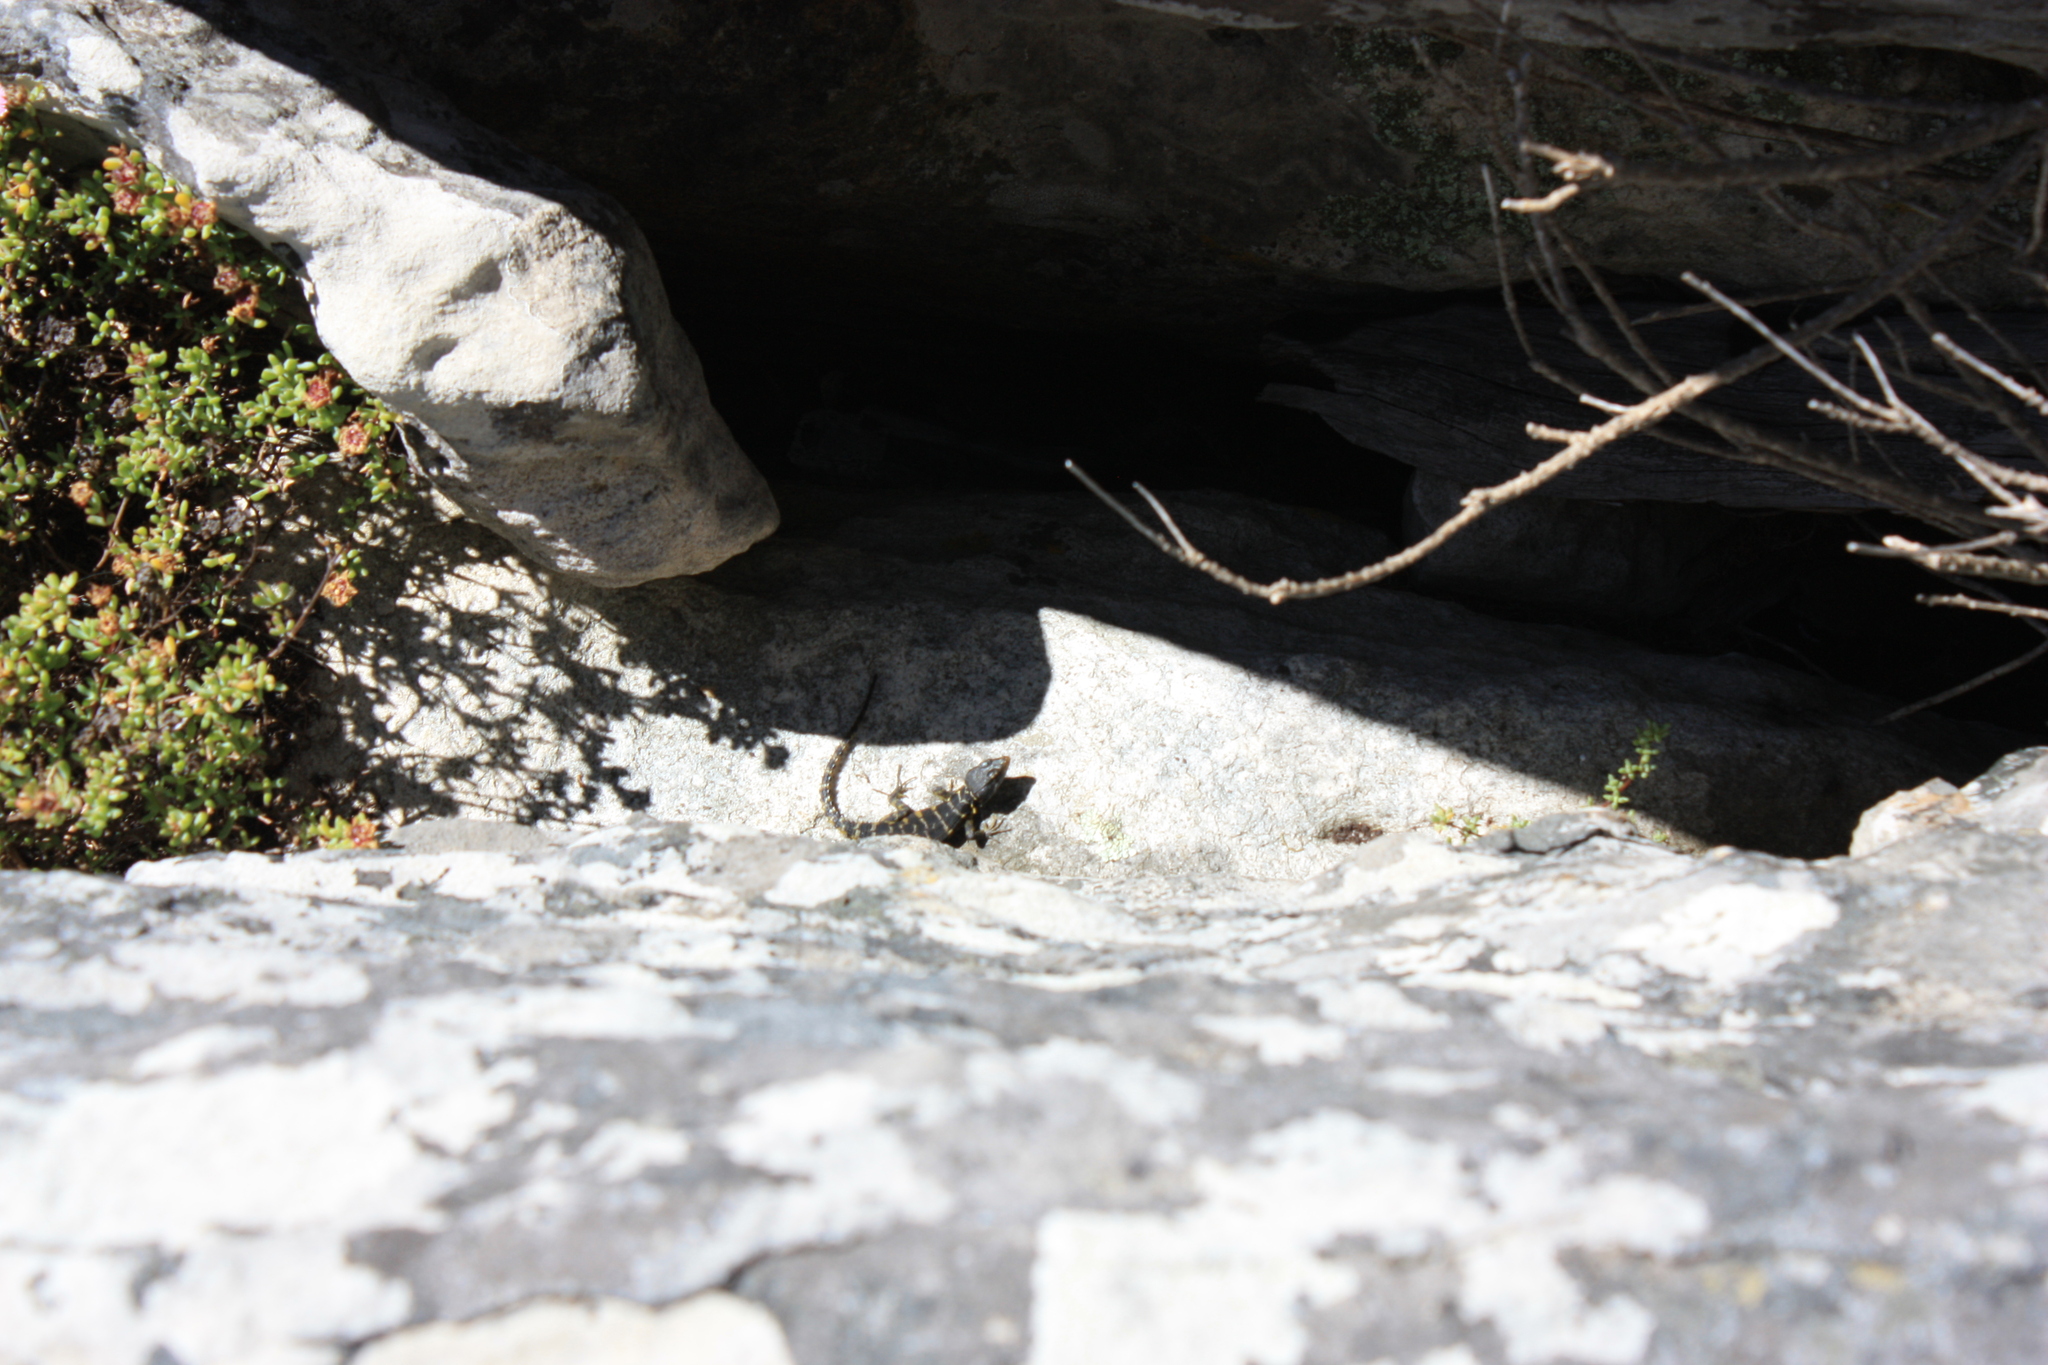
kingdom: Animalia
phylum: Chordata
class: Squamata
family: Cordylidae
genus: Pseudocordylus
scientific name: Pseudocordylus microlepidotus
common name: Cape crag lizard
